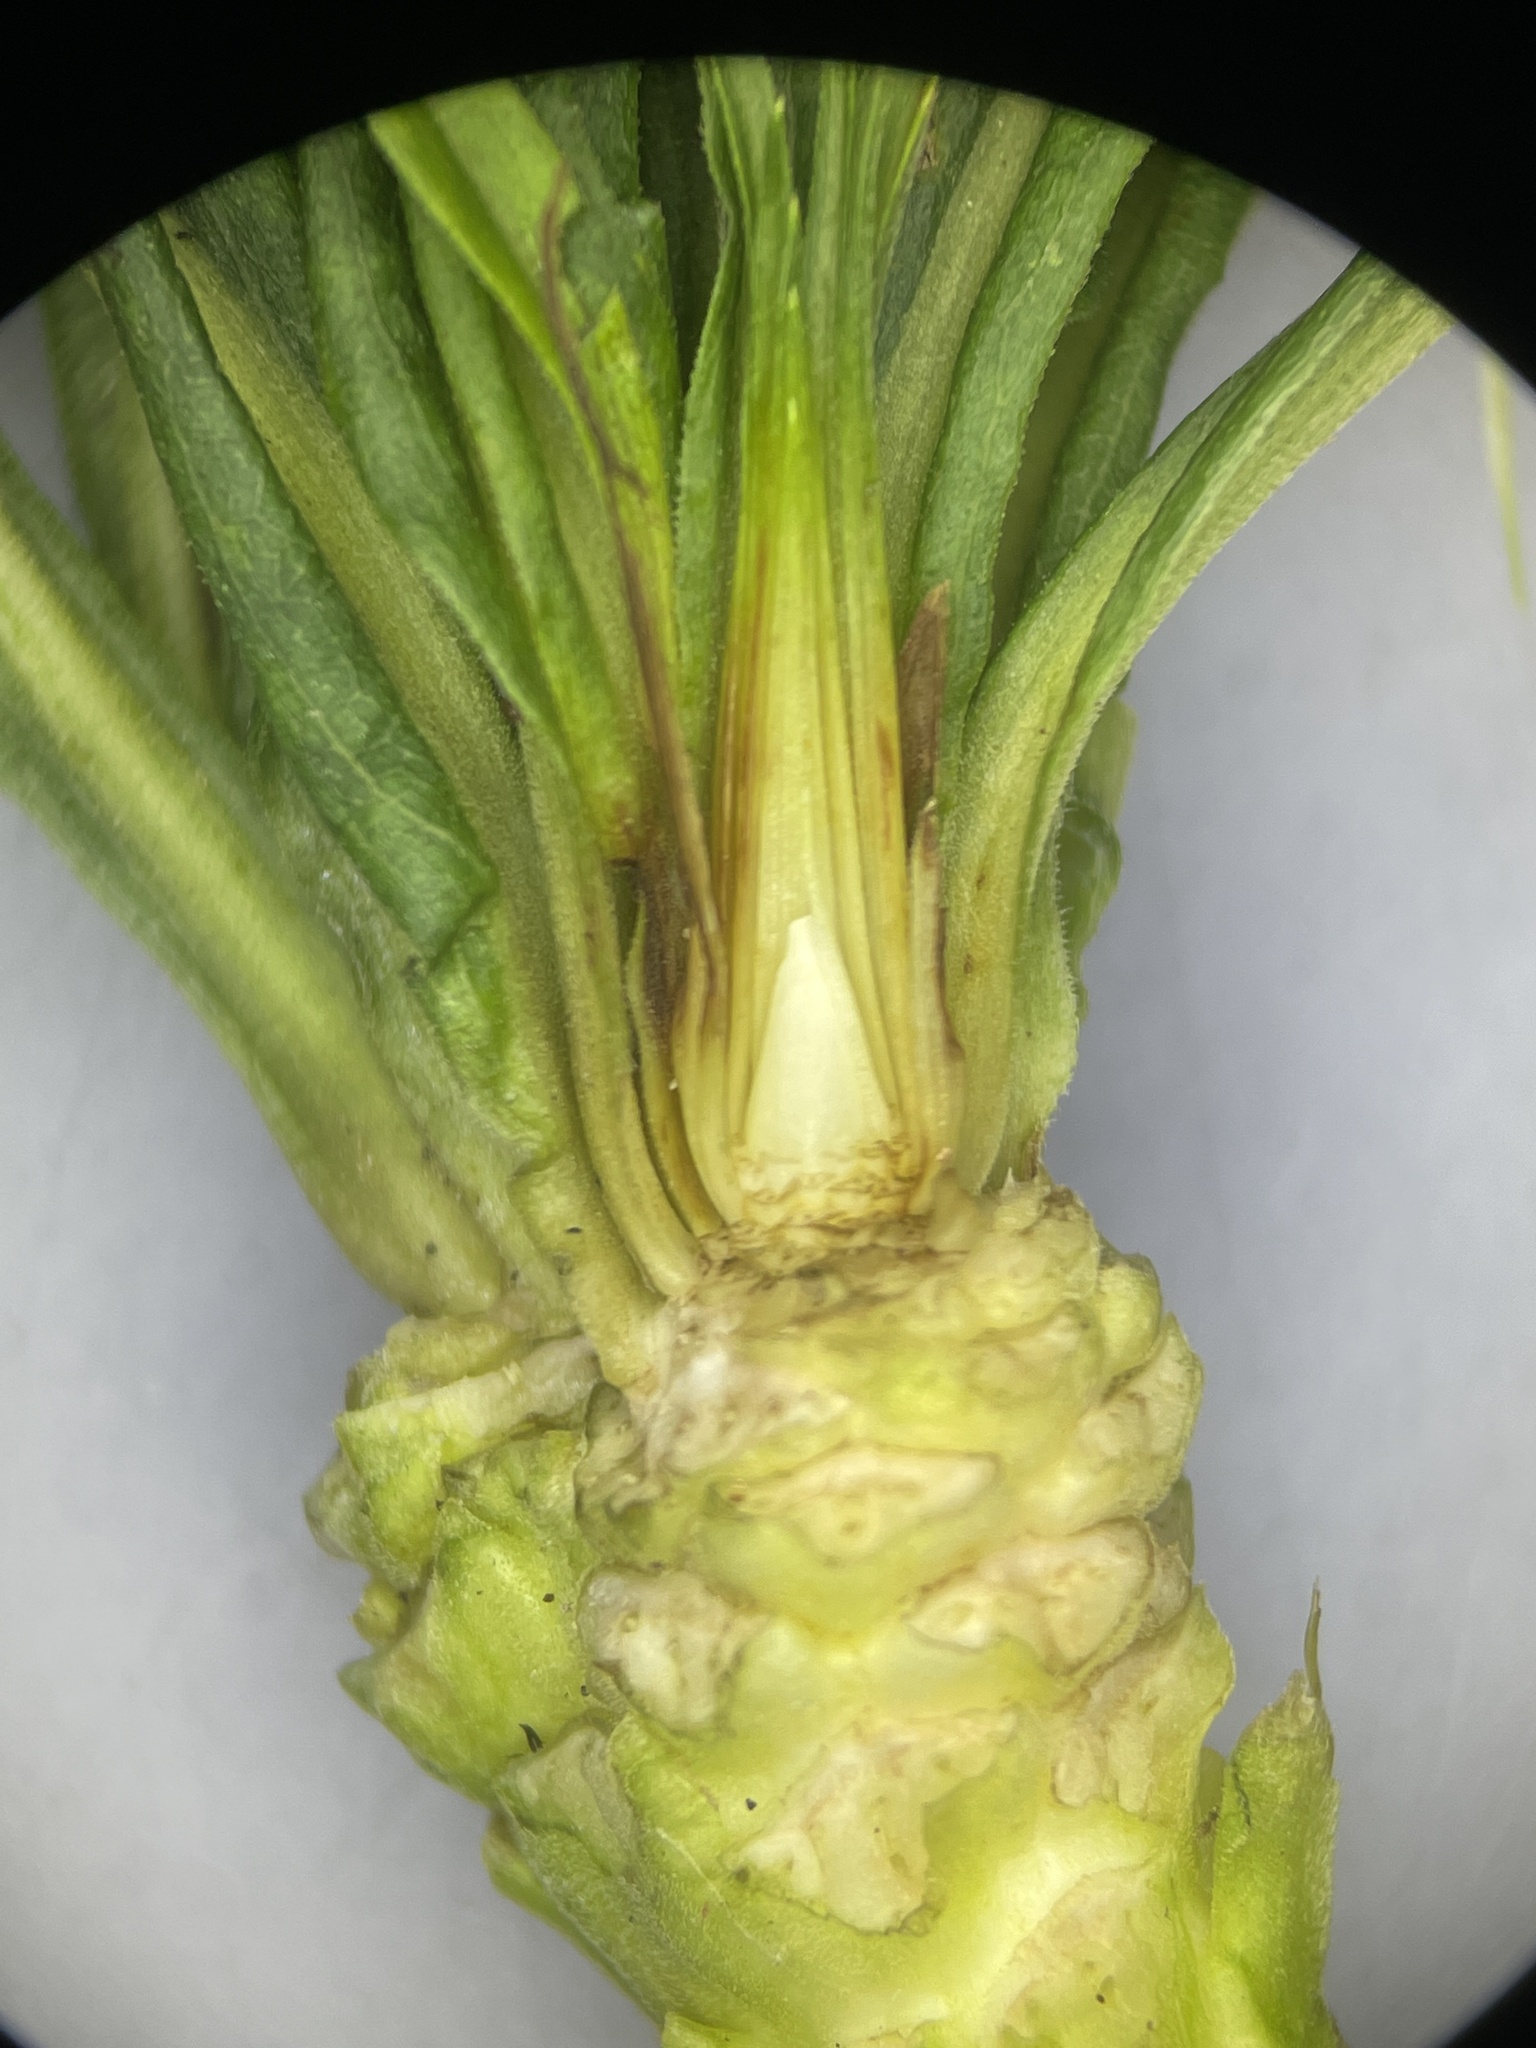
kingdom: Animalia
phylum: Arthropoda
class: Insecta
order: Diptera
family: Cecidomyiidae
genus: Rhopalomyia
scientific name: Rhopalomyia solidaginis
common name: Goldenrod bunch gall midge
